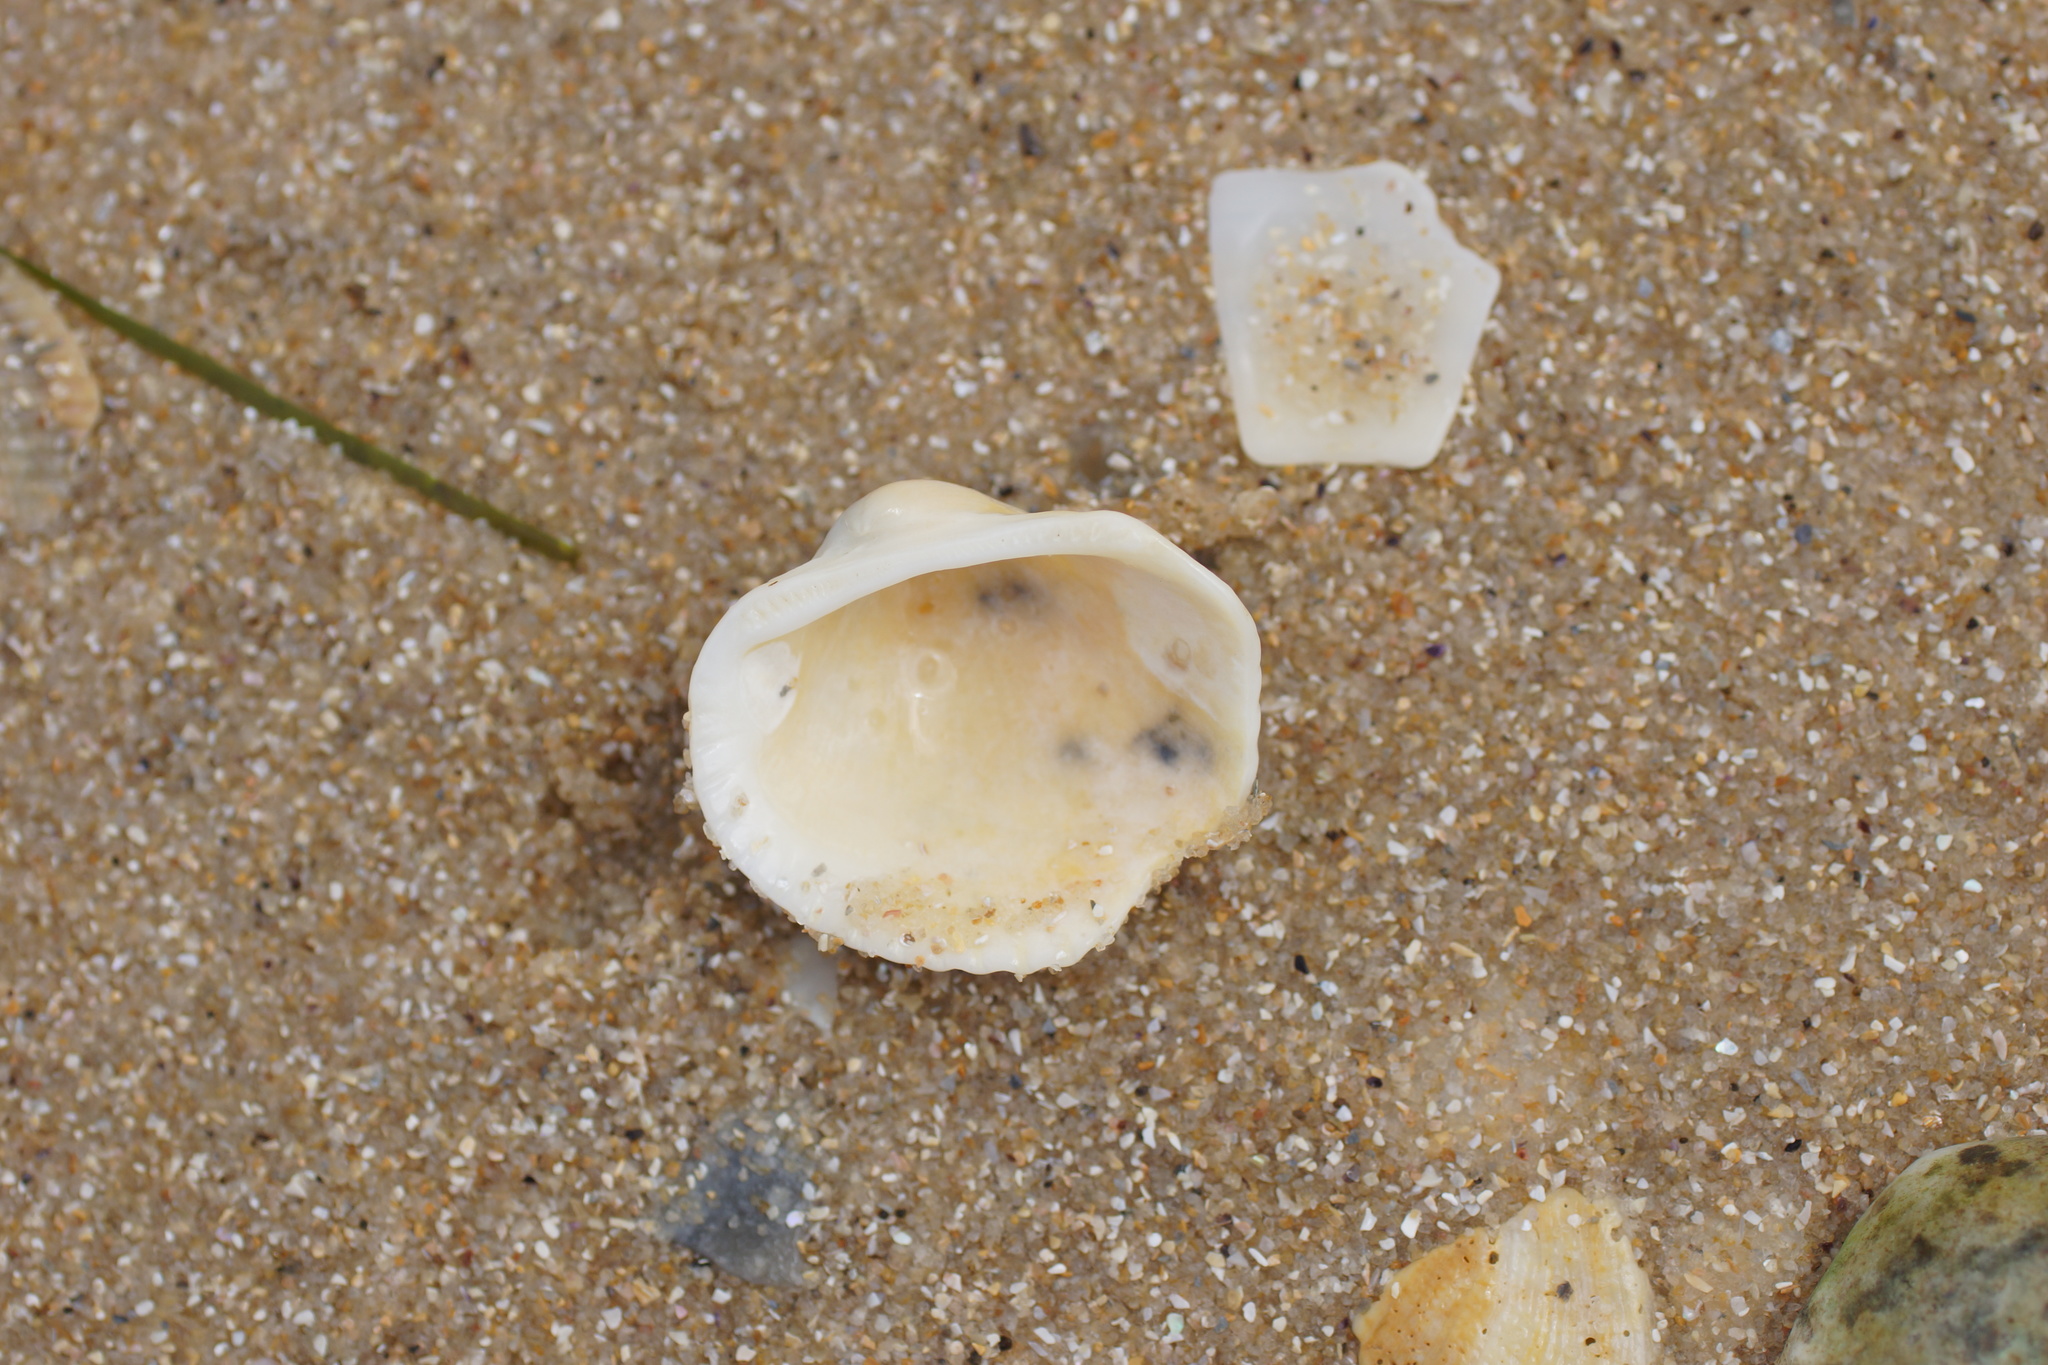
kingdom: Animalia
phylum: Mollusca
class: Bivalvia
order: Arcida
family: Arcidae
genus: Anadara
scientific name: Anadara trapezia
